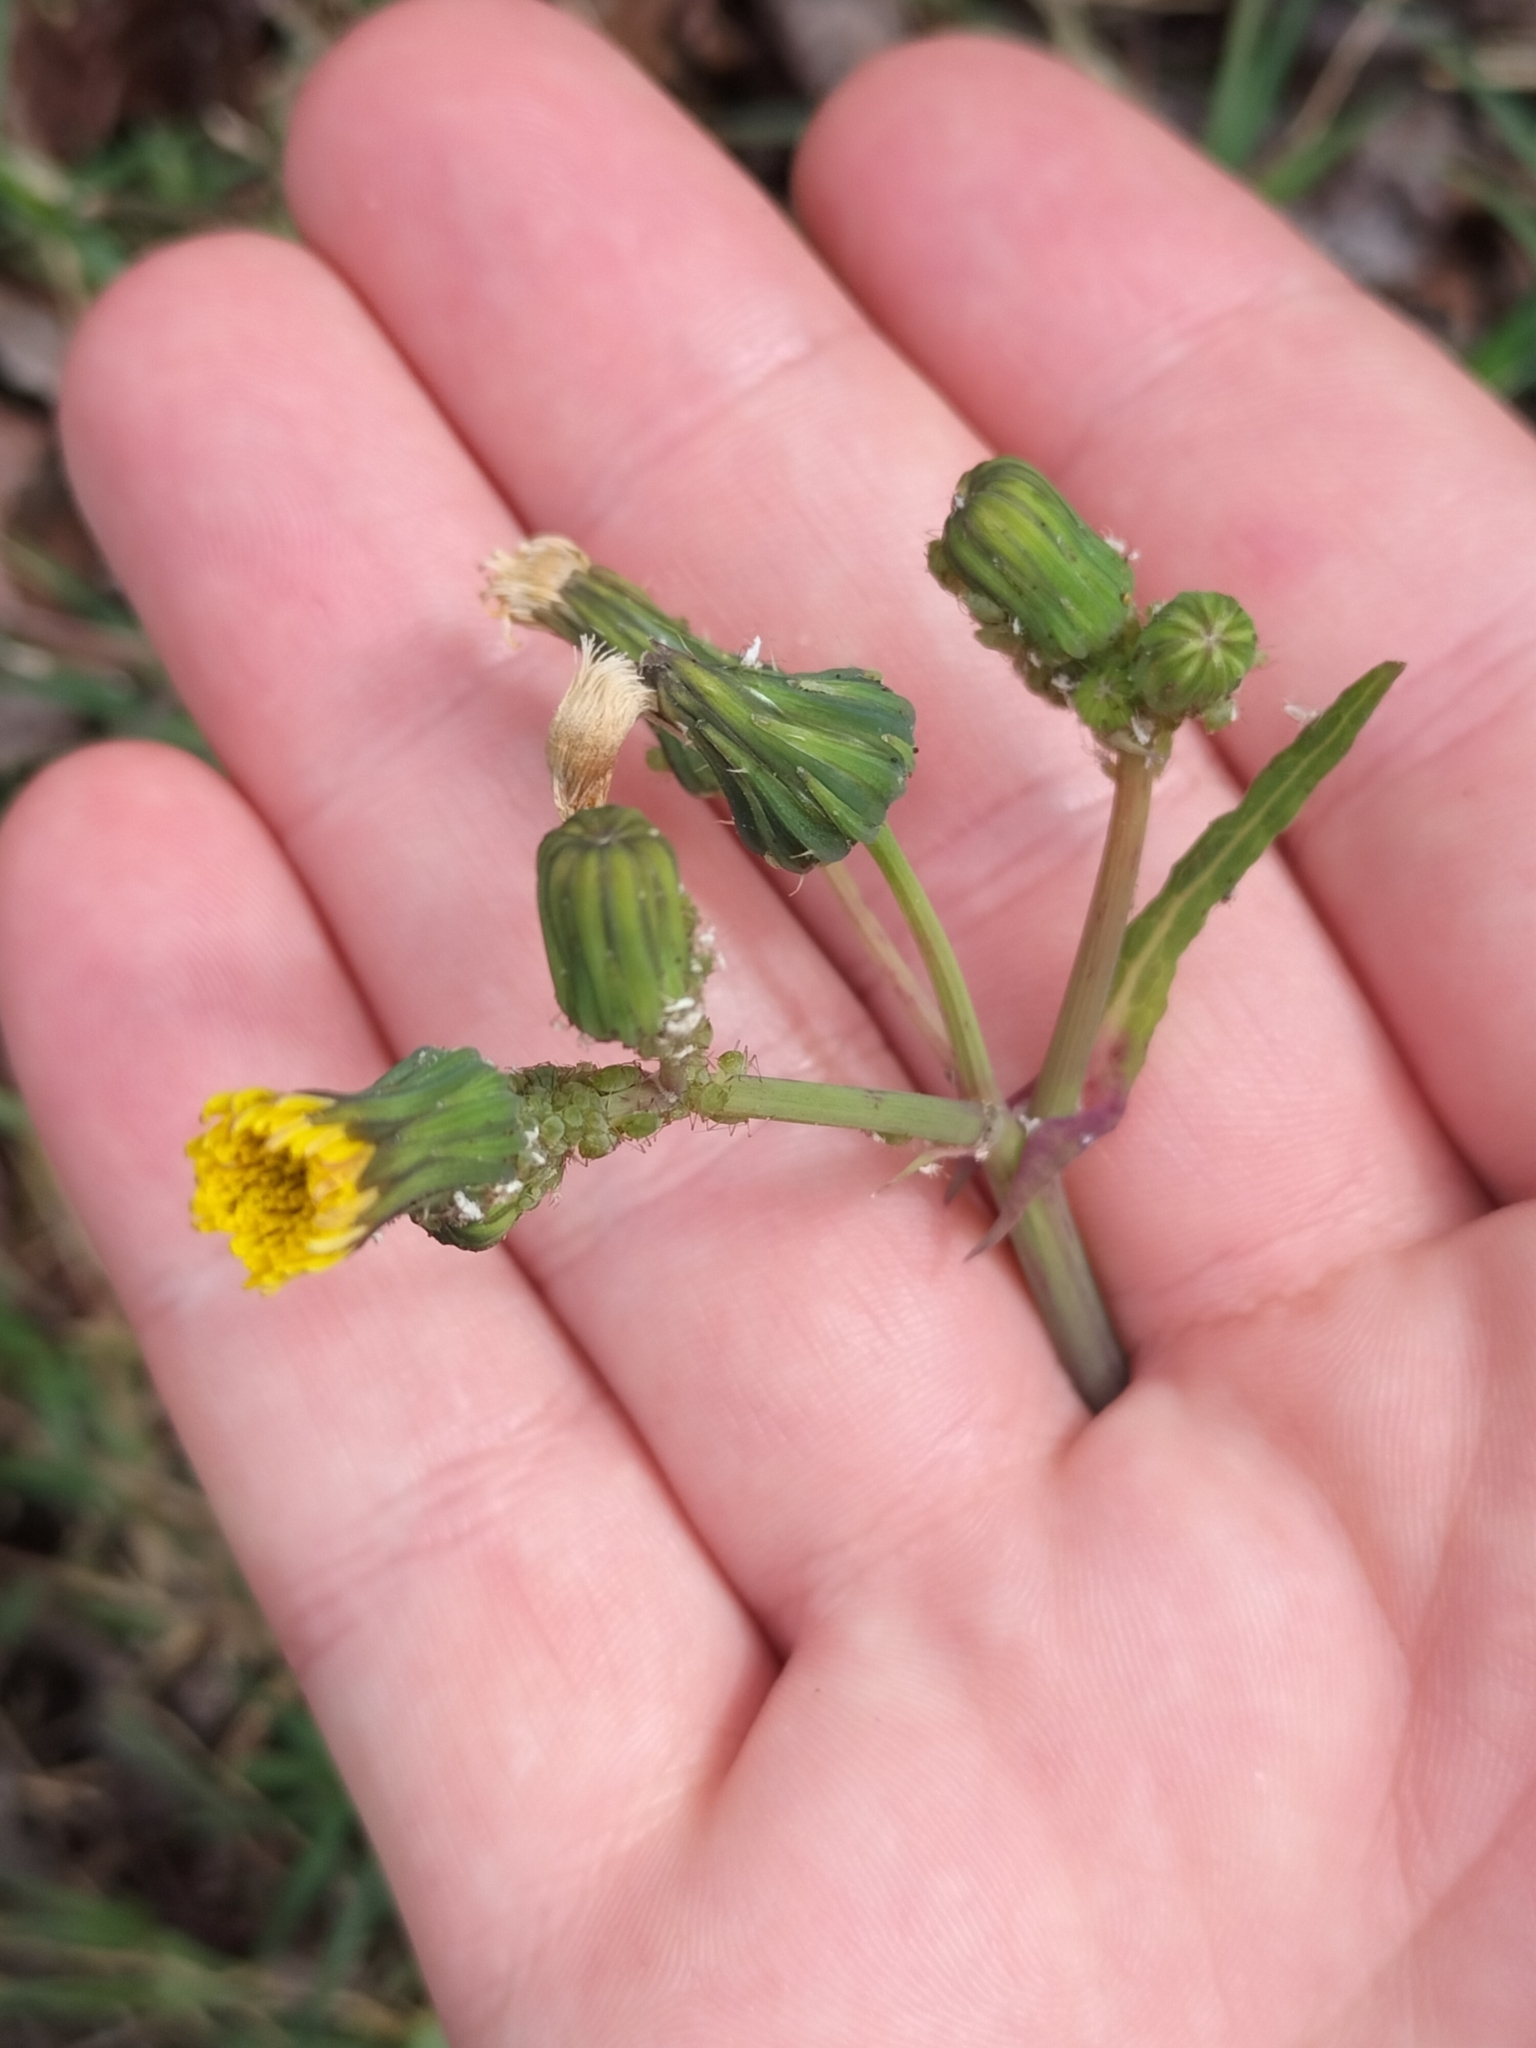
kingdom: Plantae
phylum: Tracheophyta
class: Magnoliopsida
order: Asterales
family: Asteraceae
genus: Sonchus
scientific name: Sonchus oleraceus
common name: Common sowthistle
